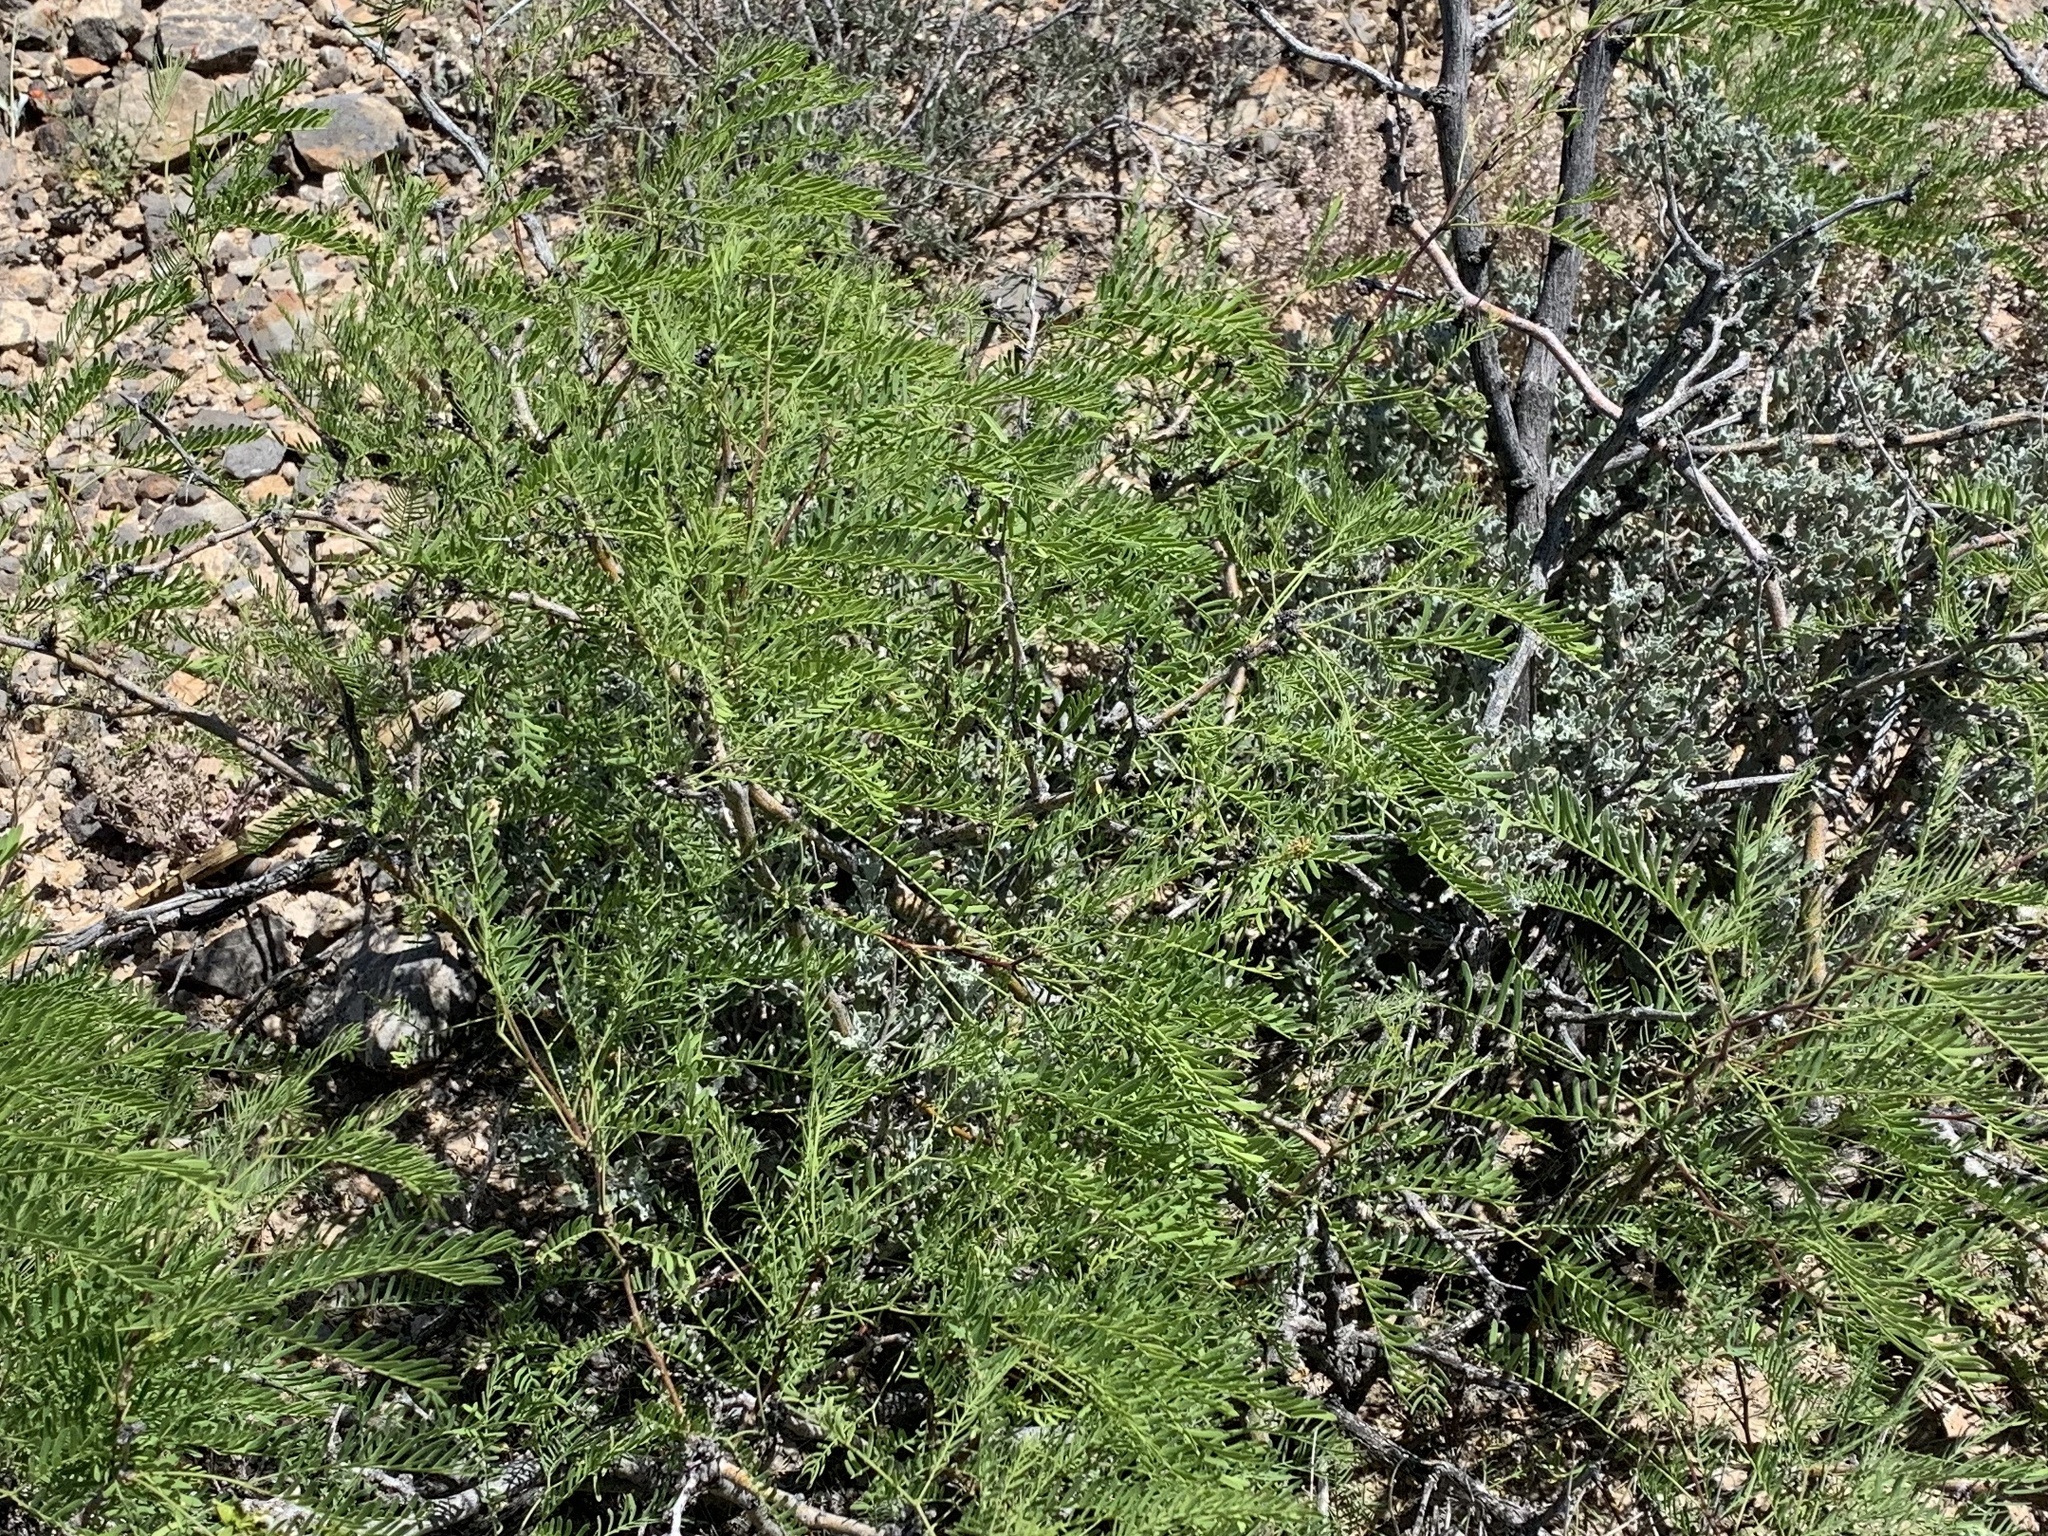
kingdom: Plantae
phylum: Tracheophyta
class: Magnoliopsida
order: Fabales
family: Fabaceae
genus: Prosopis
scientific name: Prosopis glandulosa
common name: Honey mesquite
